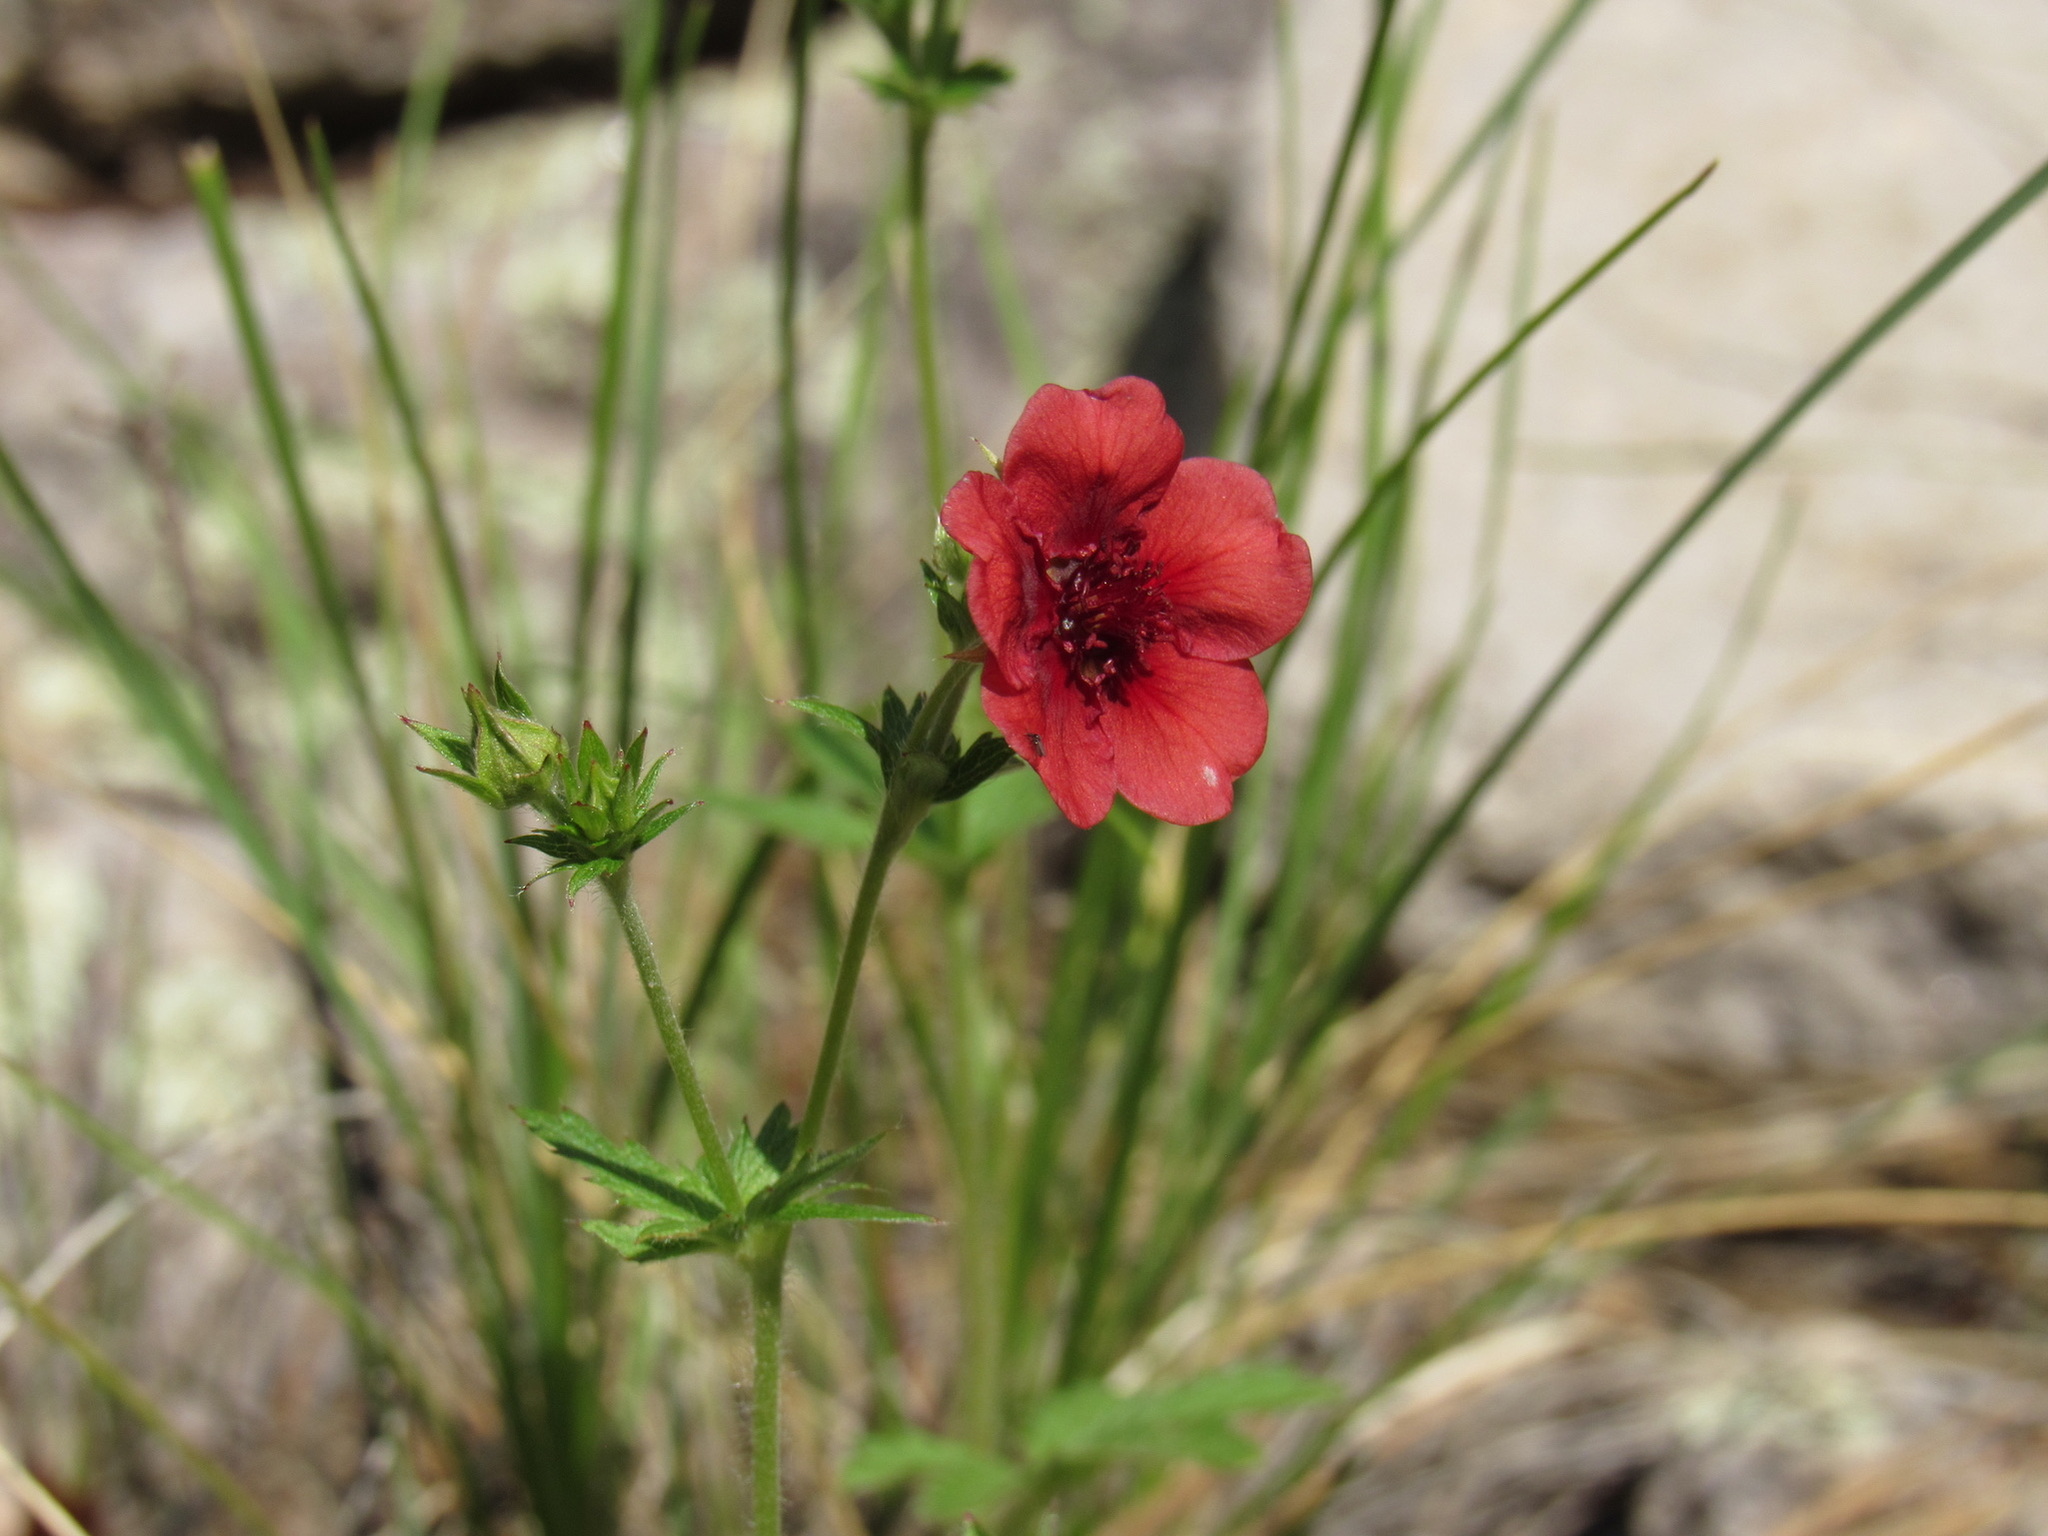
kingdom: Plantae
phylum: Tracheophyta
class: Magnoliopsida
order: Rosales
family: Rosaceae
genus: Potentilla
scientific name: Potentilla thurberi
